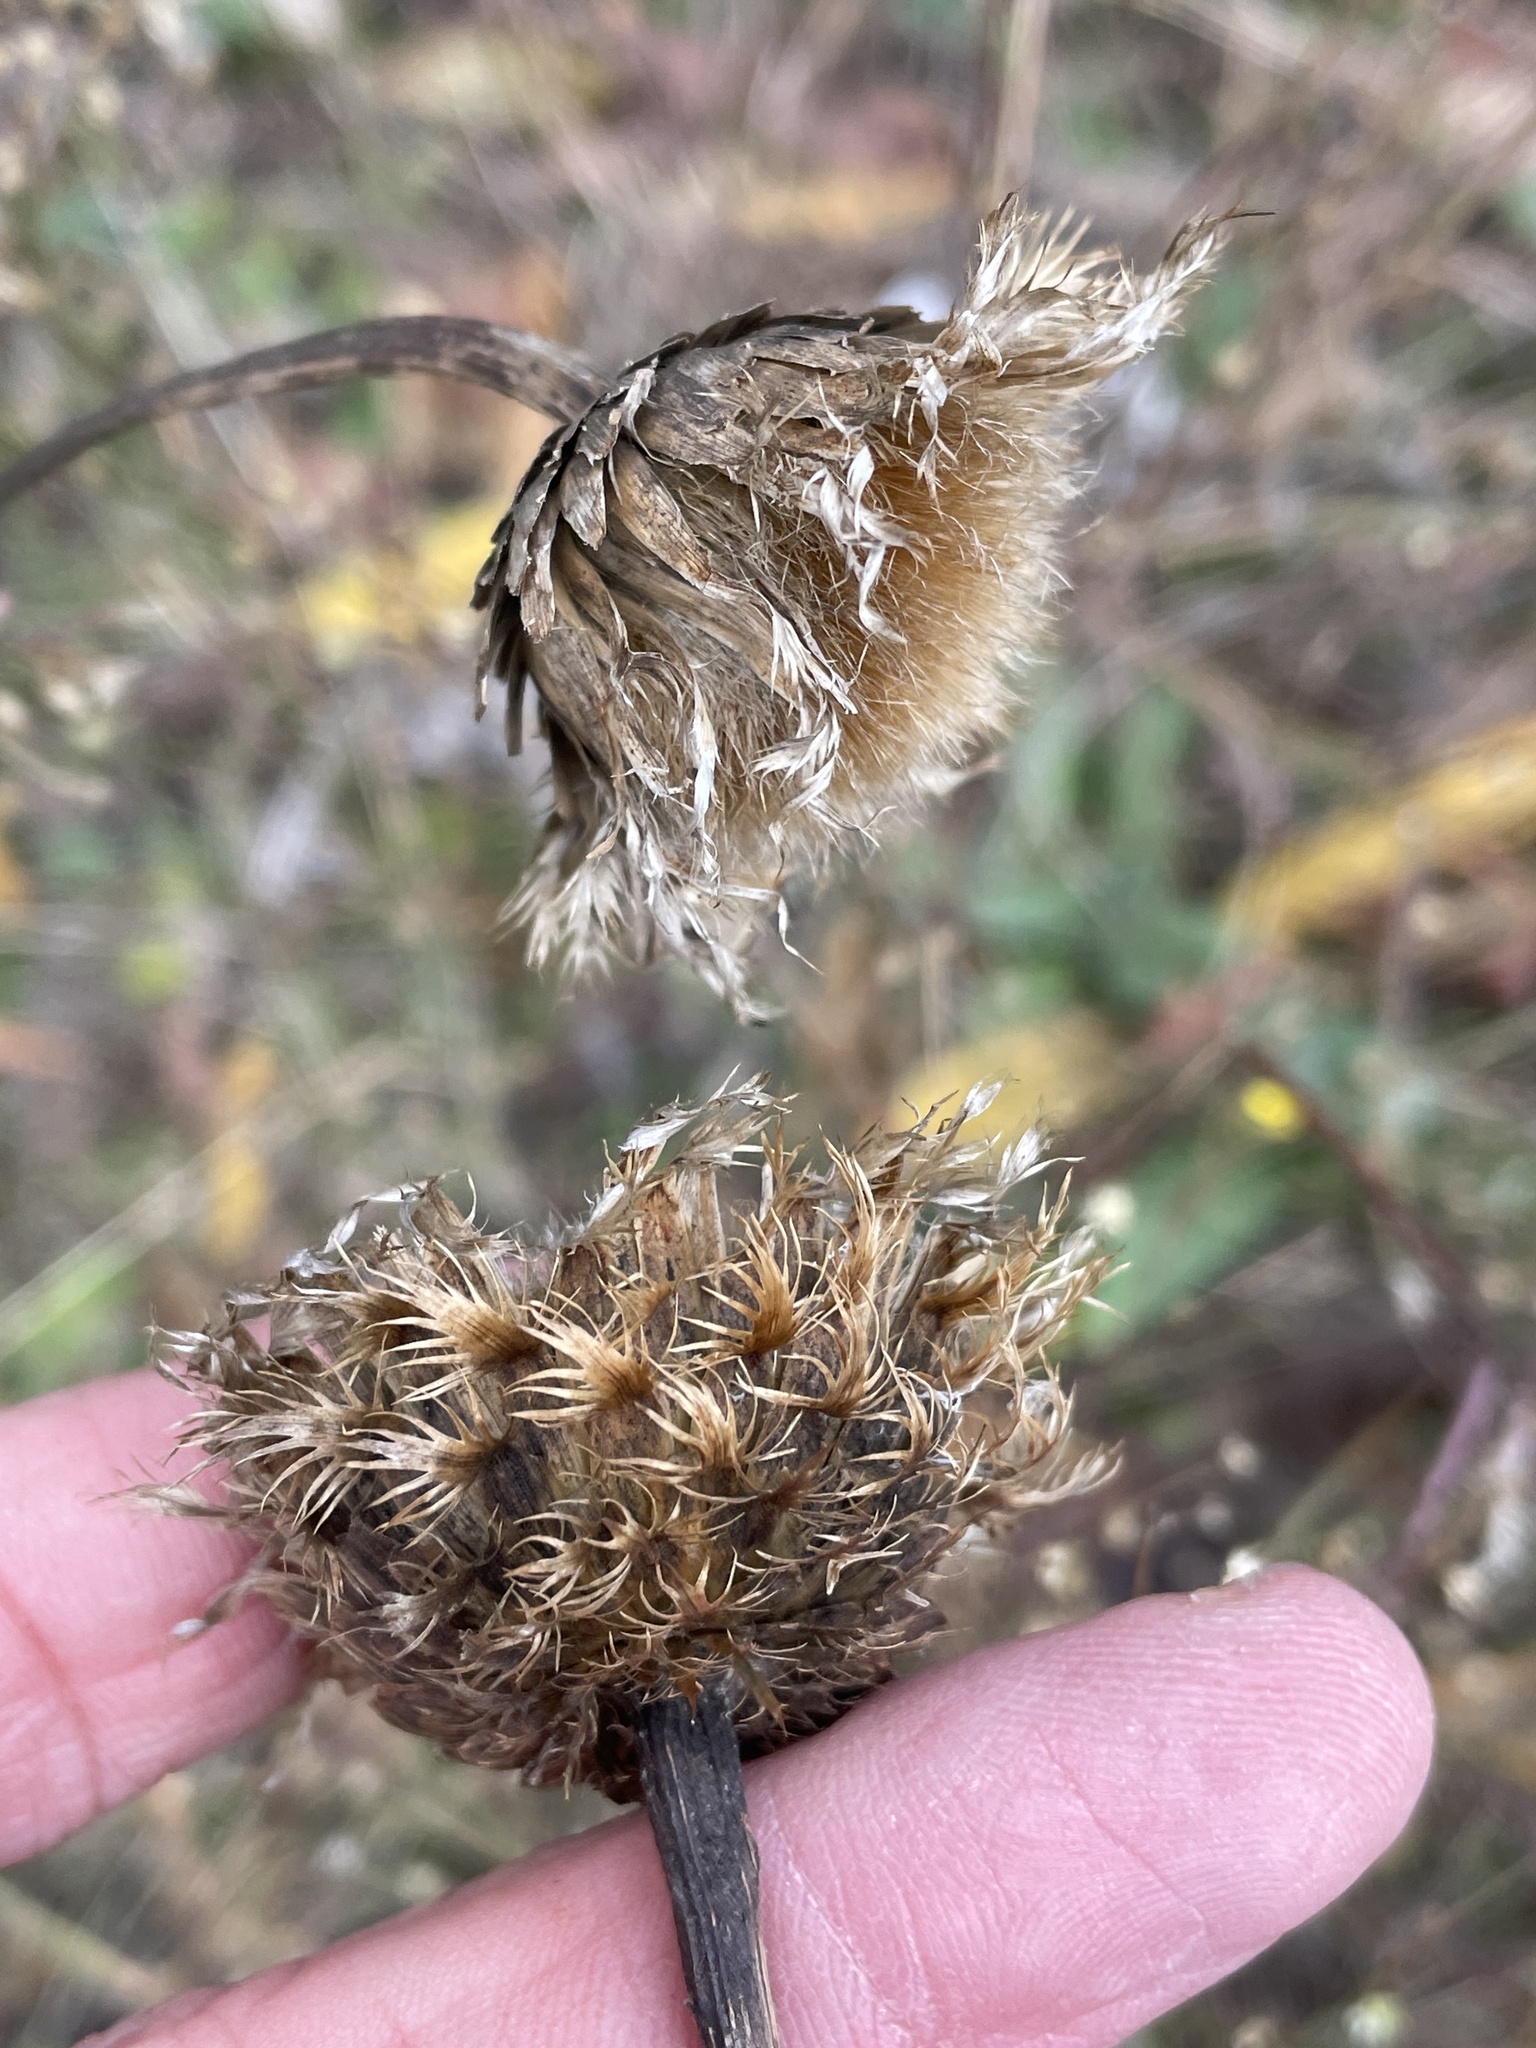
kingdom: Plantae
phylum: Tracheophyta
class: Magnoliopsida
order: Asterales
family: Asteraceae
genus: Plectocephalus
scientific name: Plectocephalus americanus
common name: American basket-flower
